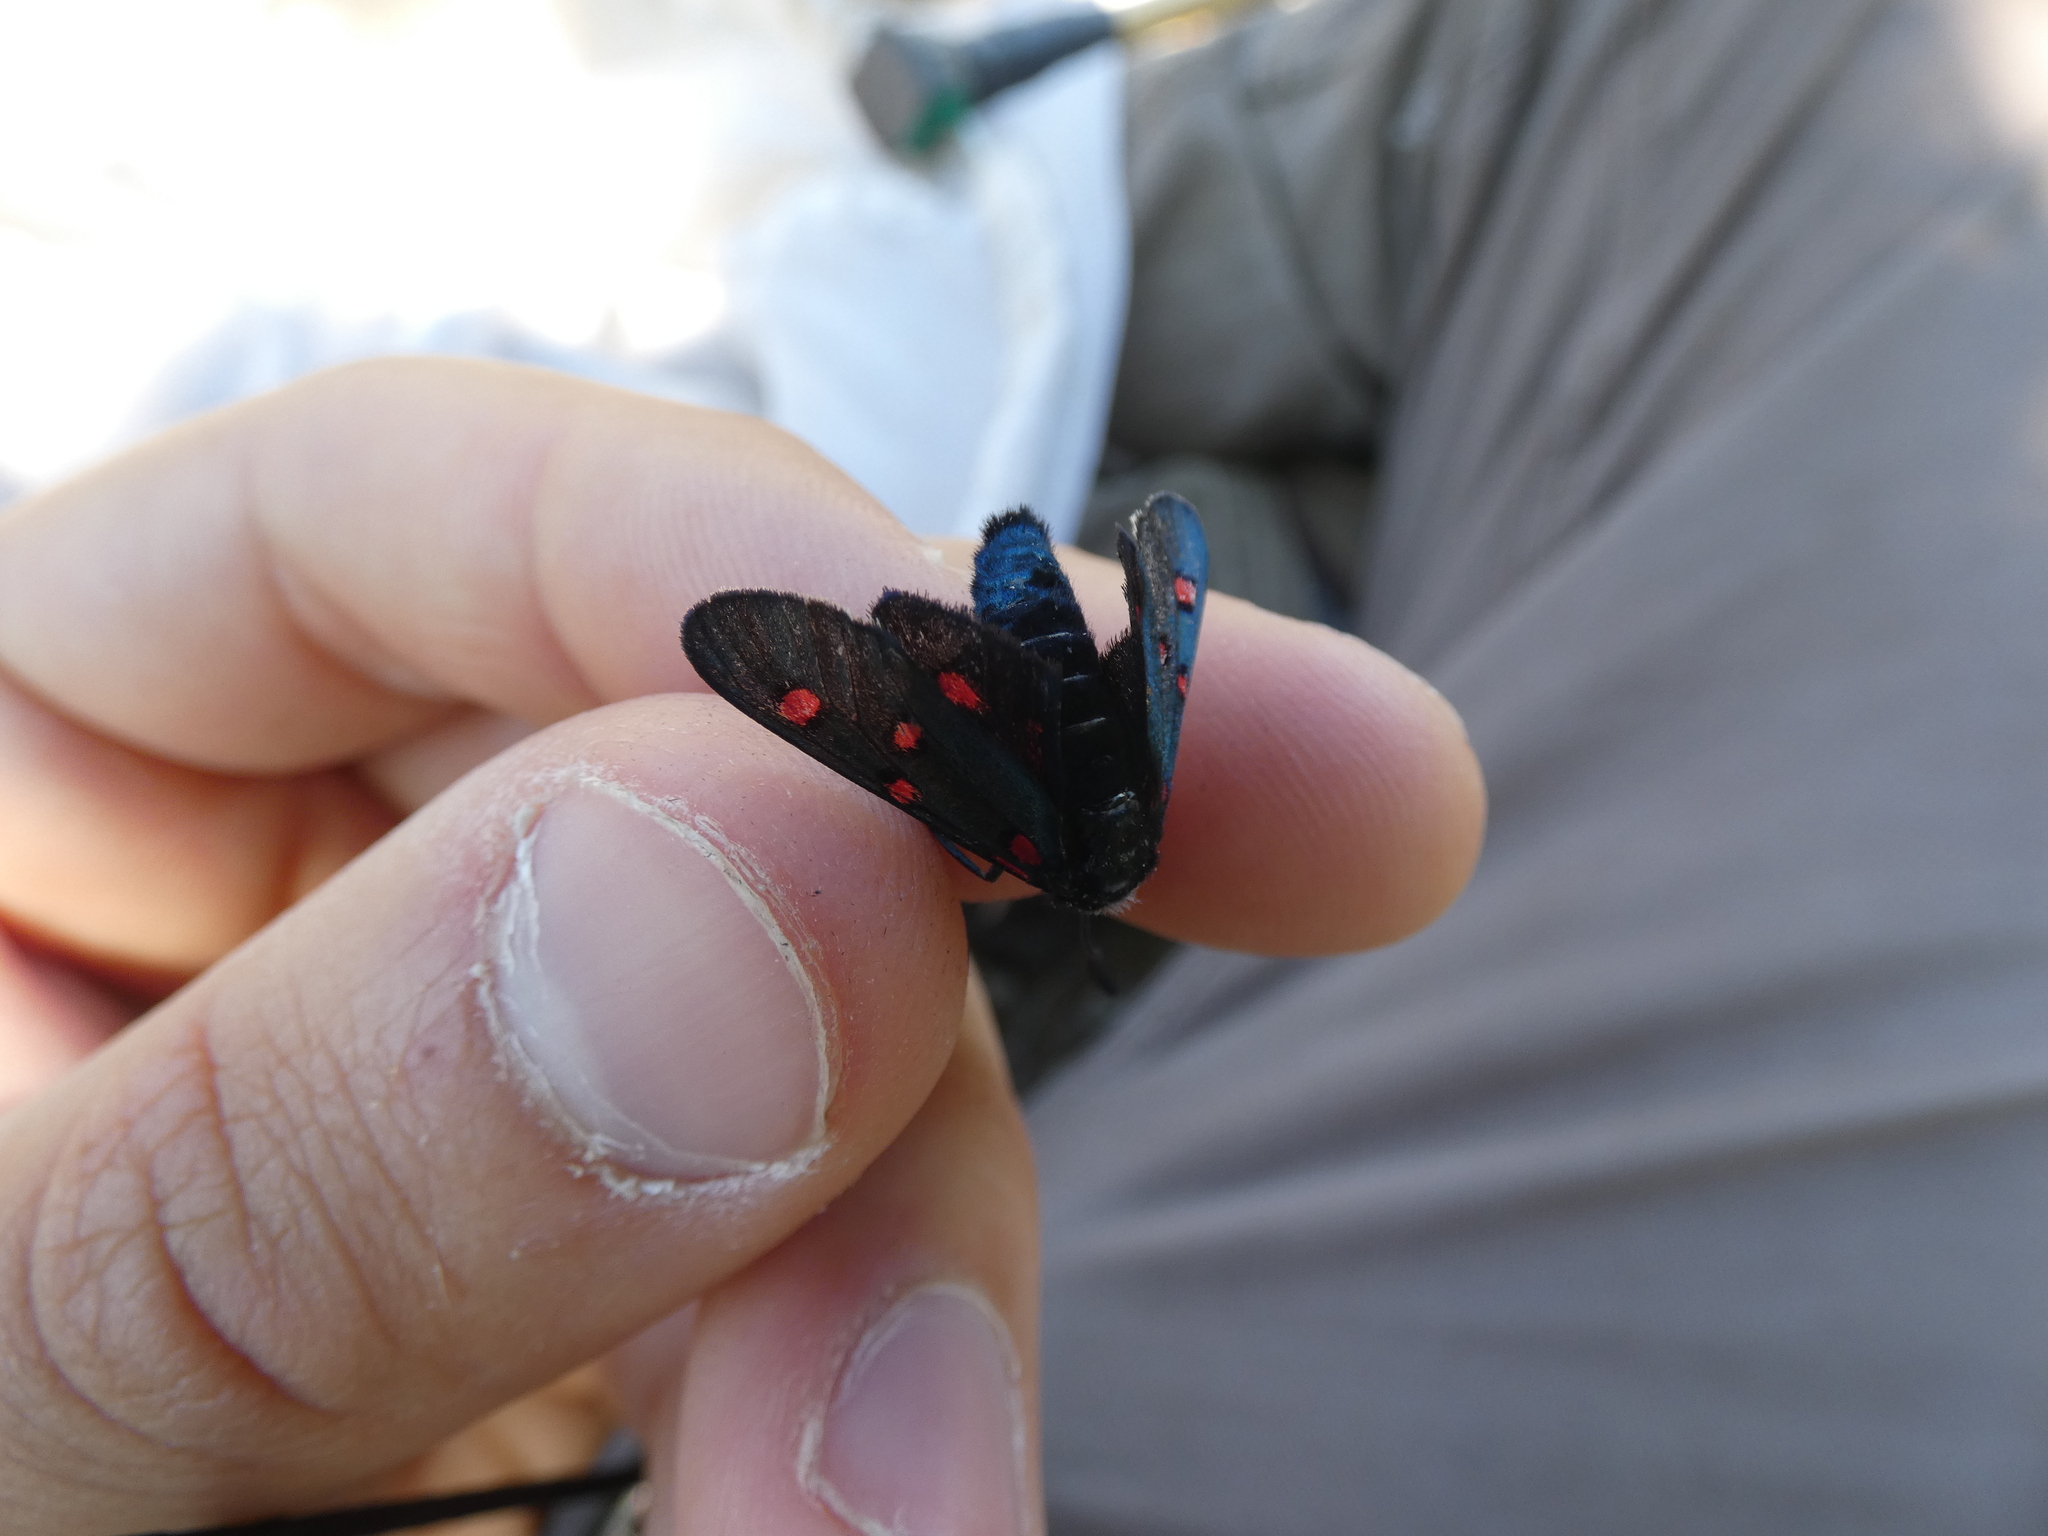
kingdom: Animalia
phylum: Arthropoda
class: Insecta
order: Lepidoptera
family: Zygaenidae
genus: Zygaena
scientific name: Zygaena lavandulae
